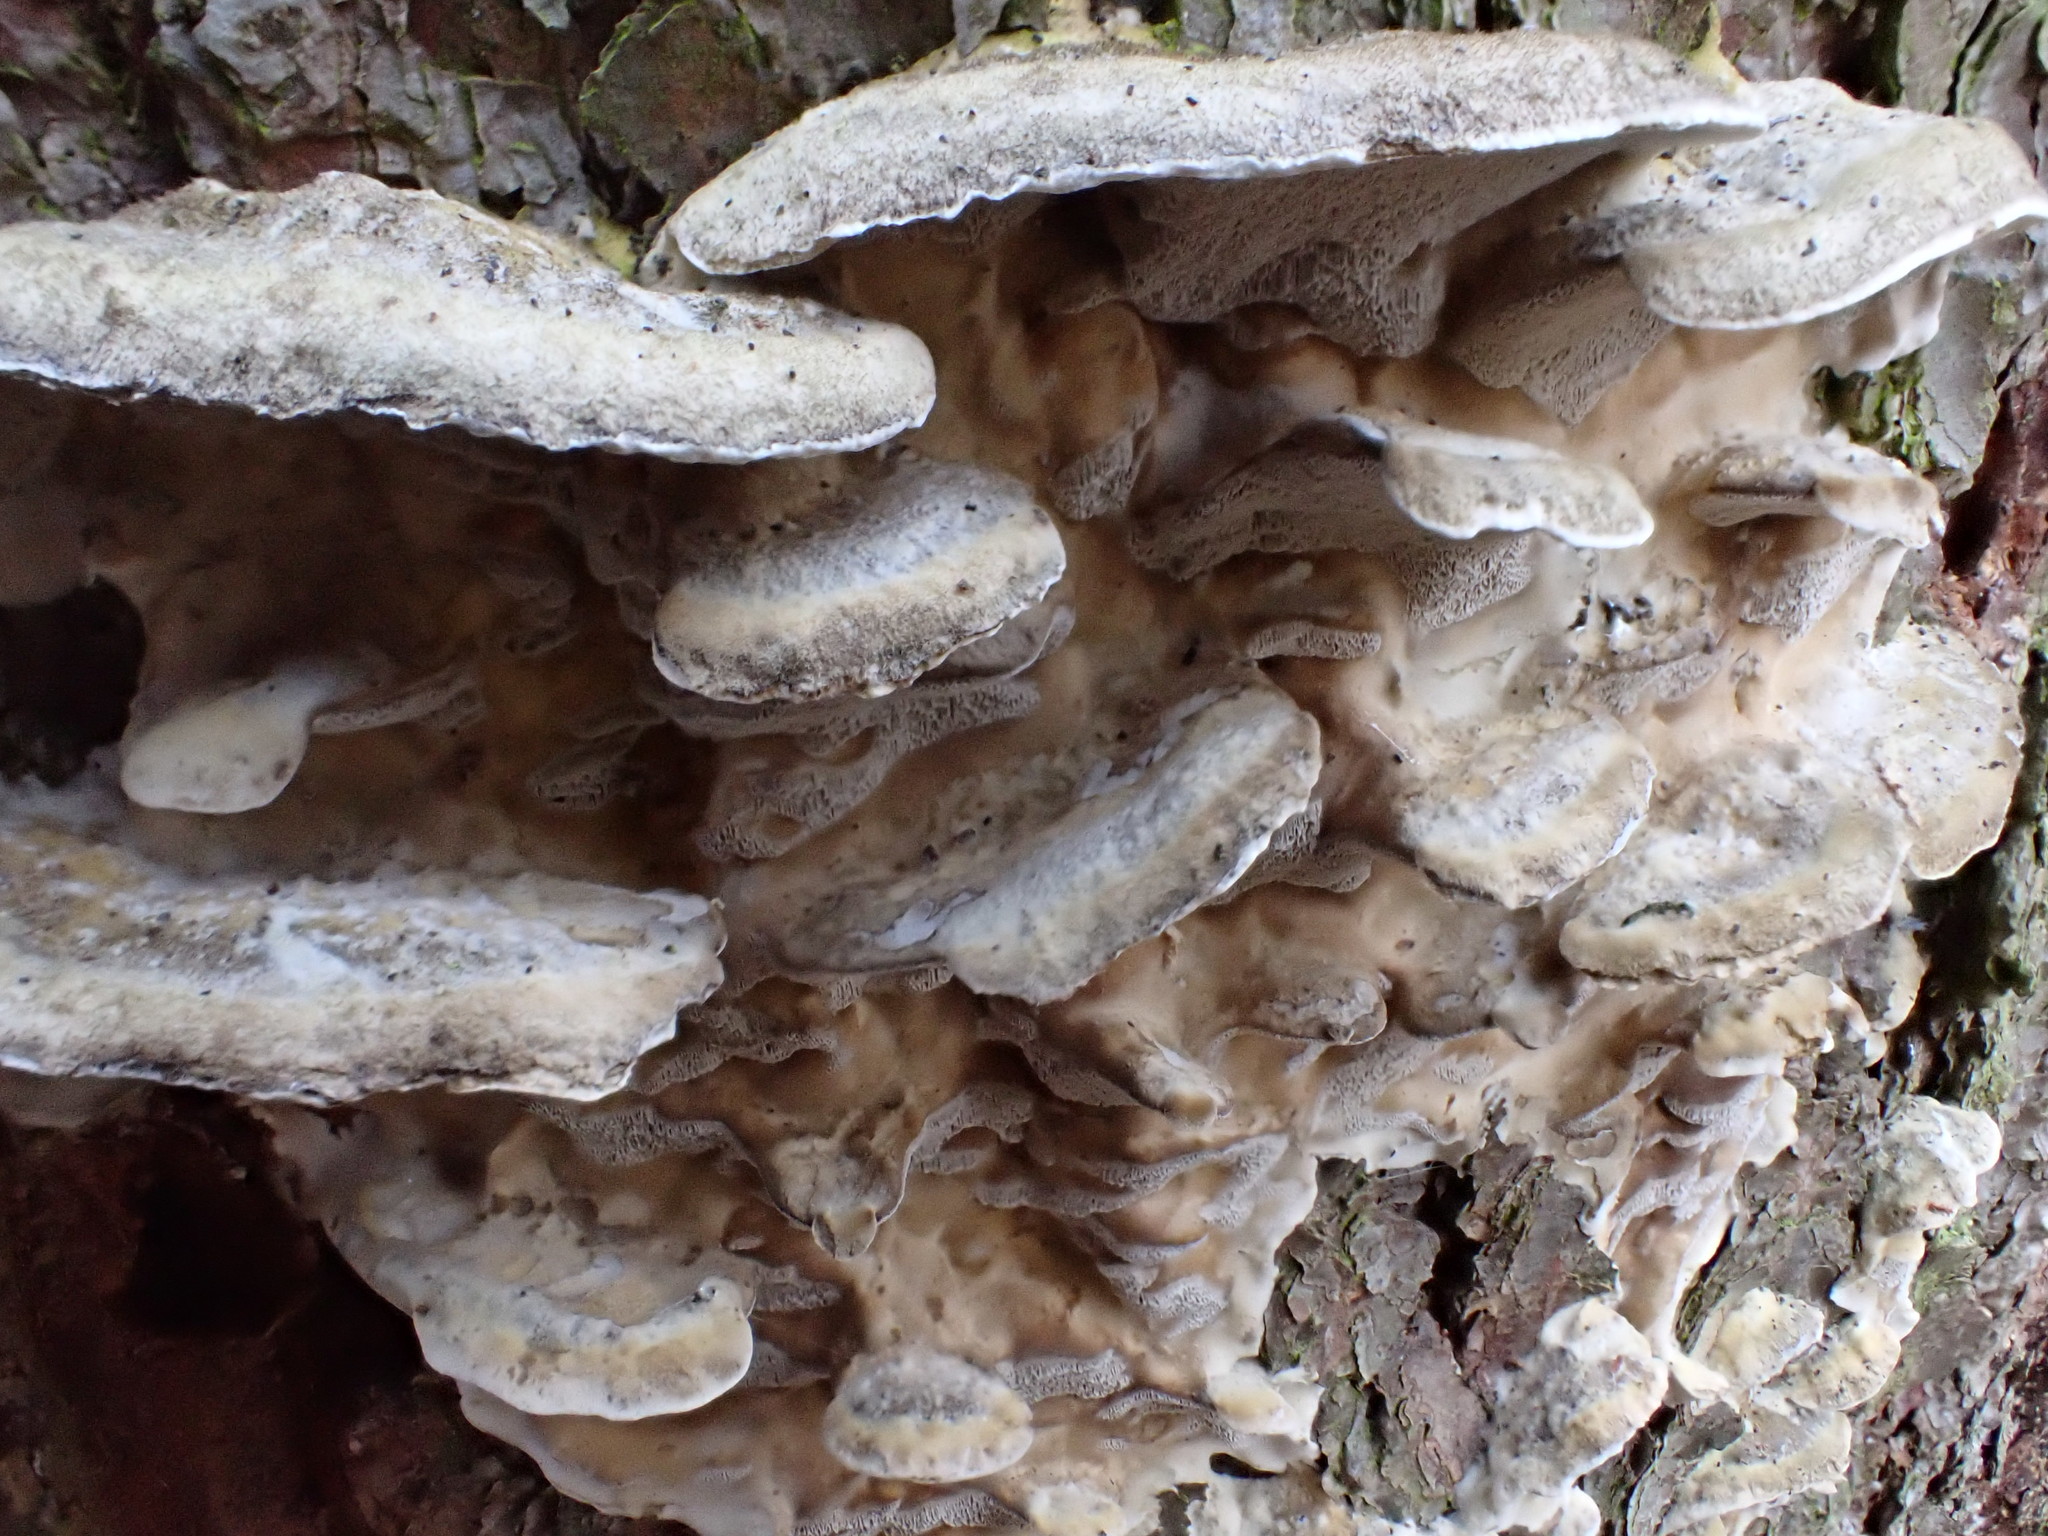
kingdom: Fungi
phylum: Basidiomycota
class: Agaricomycetes
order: Polyporales
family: Phanerochaetaceae
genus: Bjerkandera
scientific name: Bjerkandera adusta
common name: Smoky bracket
